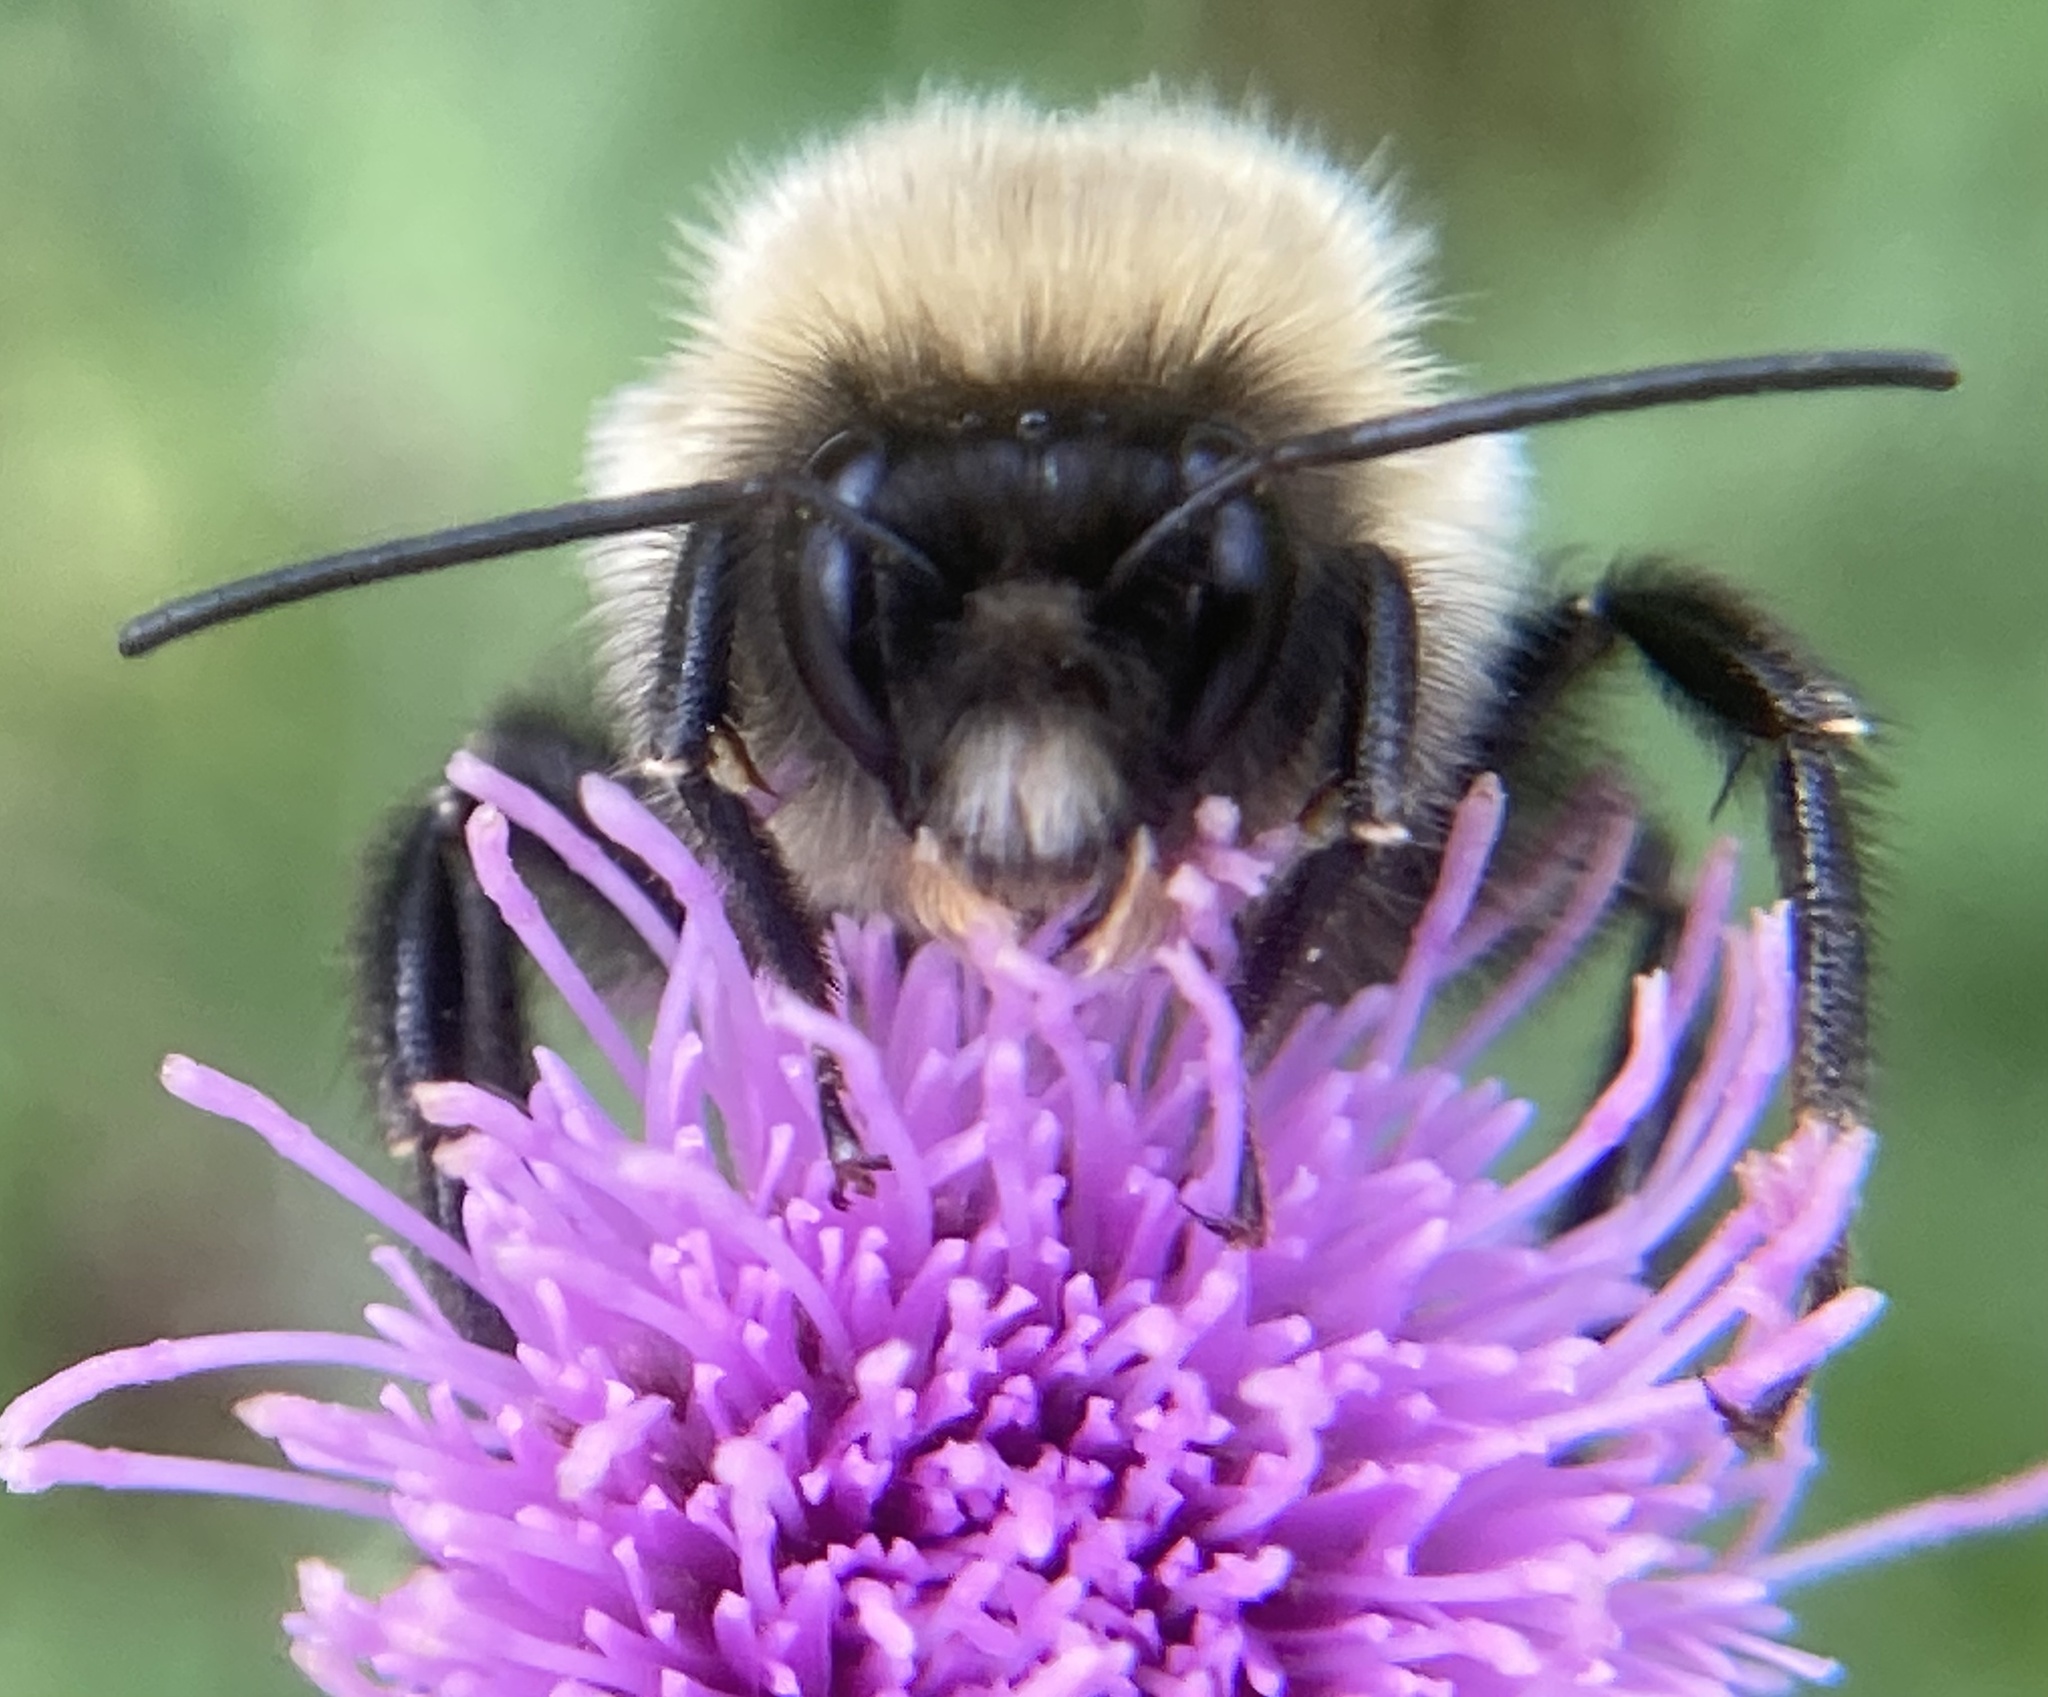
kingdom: Animalia
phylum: Arthropoda
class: Insecta
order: Hymenoptera
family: Apidae
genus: Bombus
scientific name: Bombus impatiens
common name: Common eastern bumble bee
